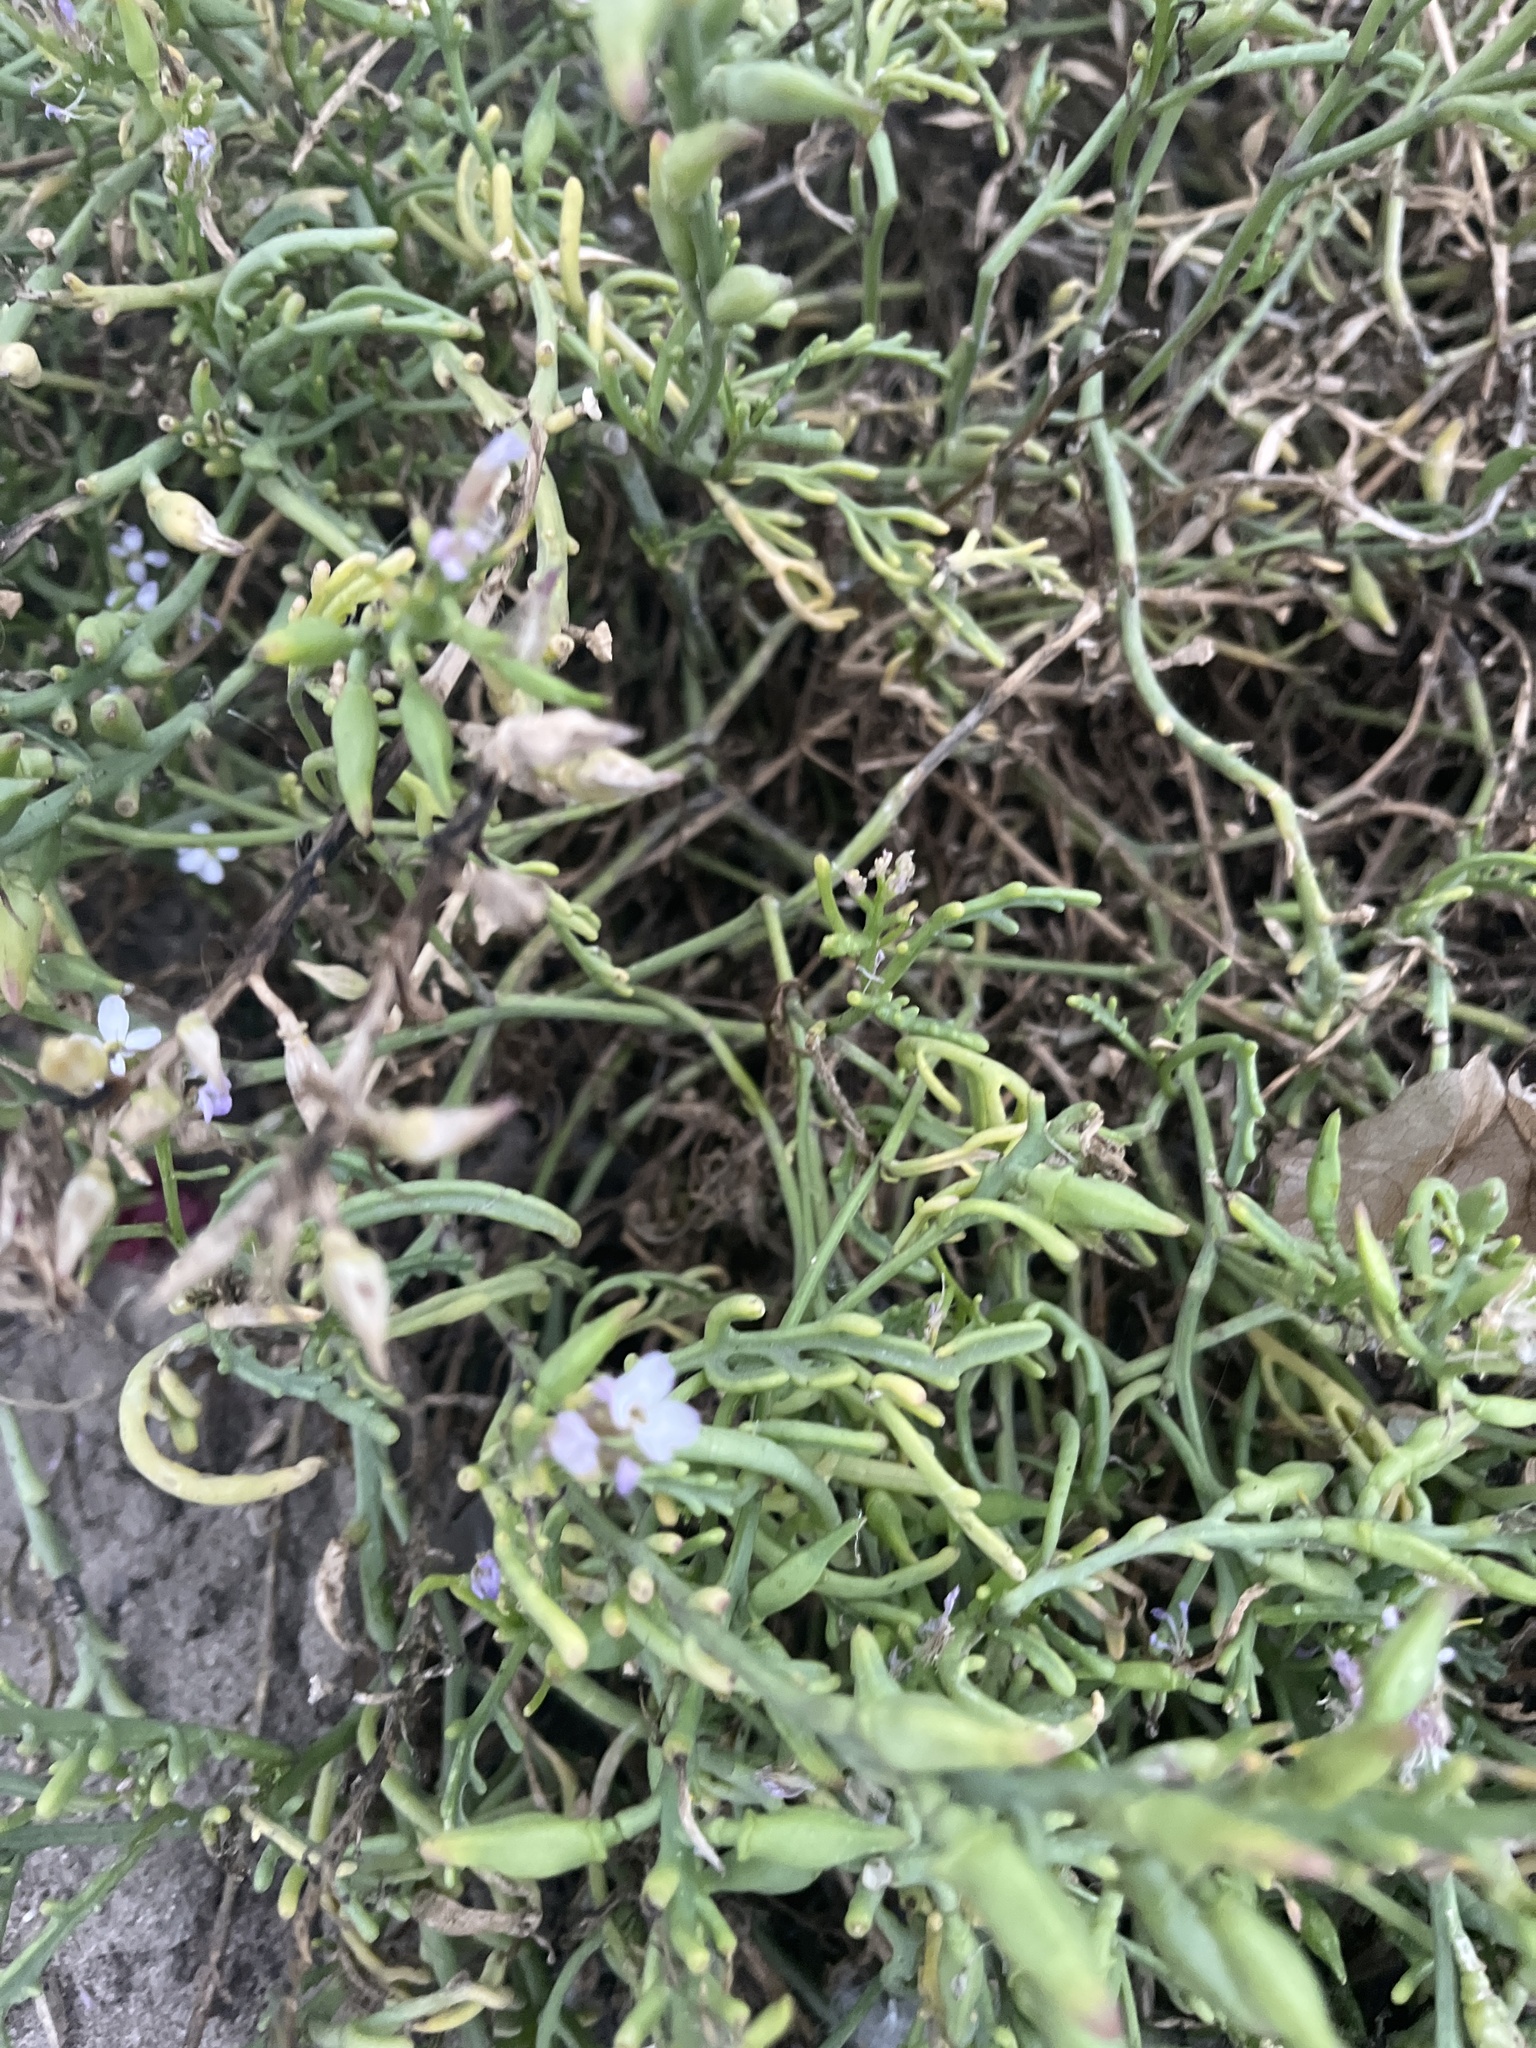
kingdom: Plantae
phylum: Tracheophyta
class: Magnoliopsida
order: Brassicales
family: Brassicaceae
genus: Cakile
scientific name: Cakile maritima
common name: Sea rocket
